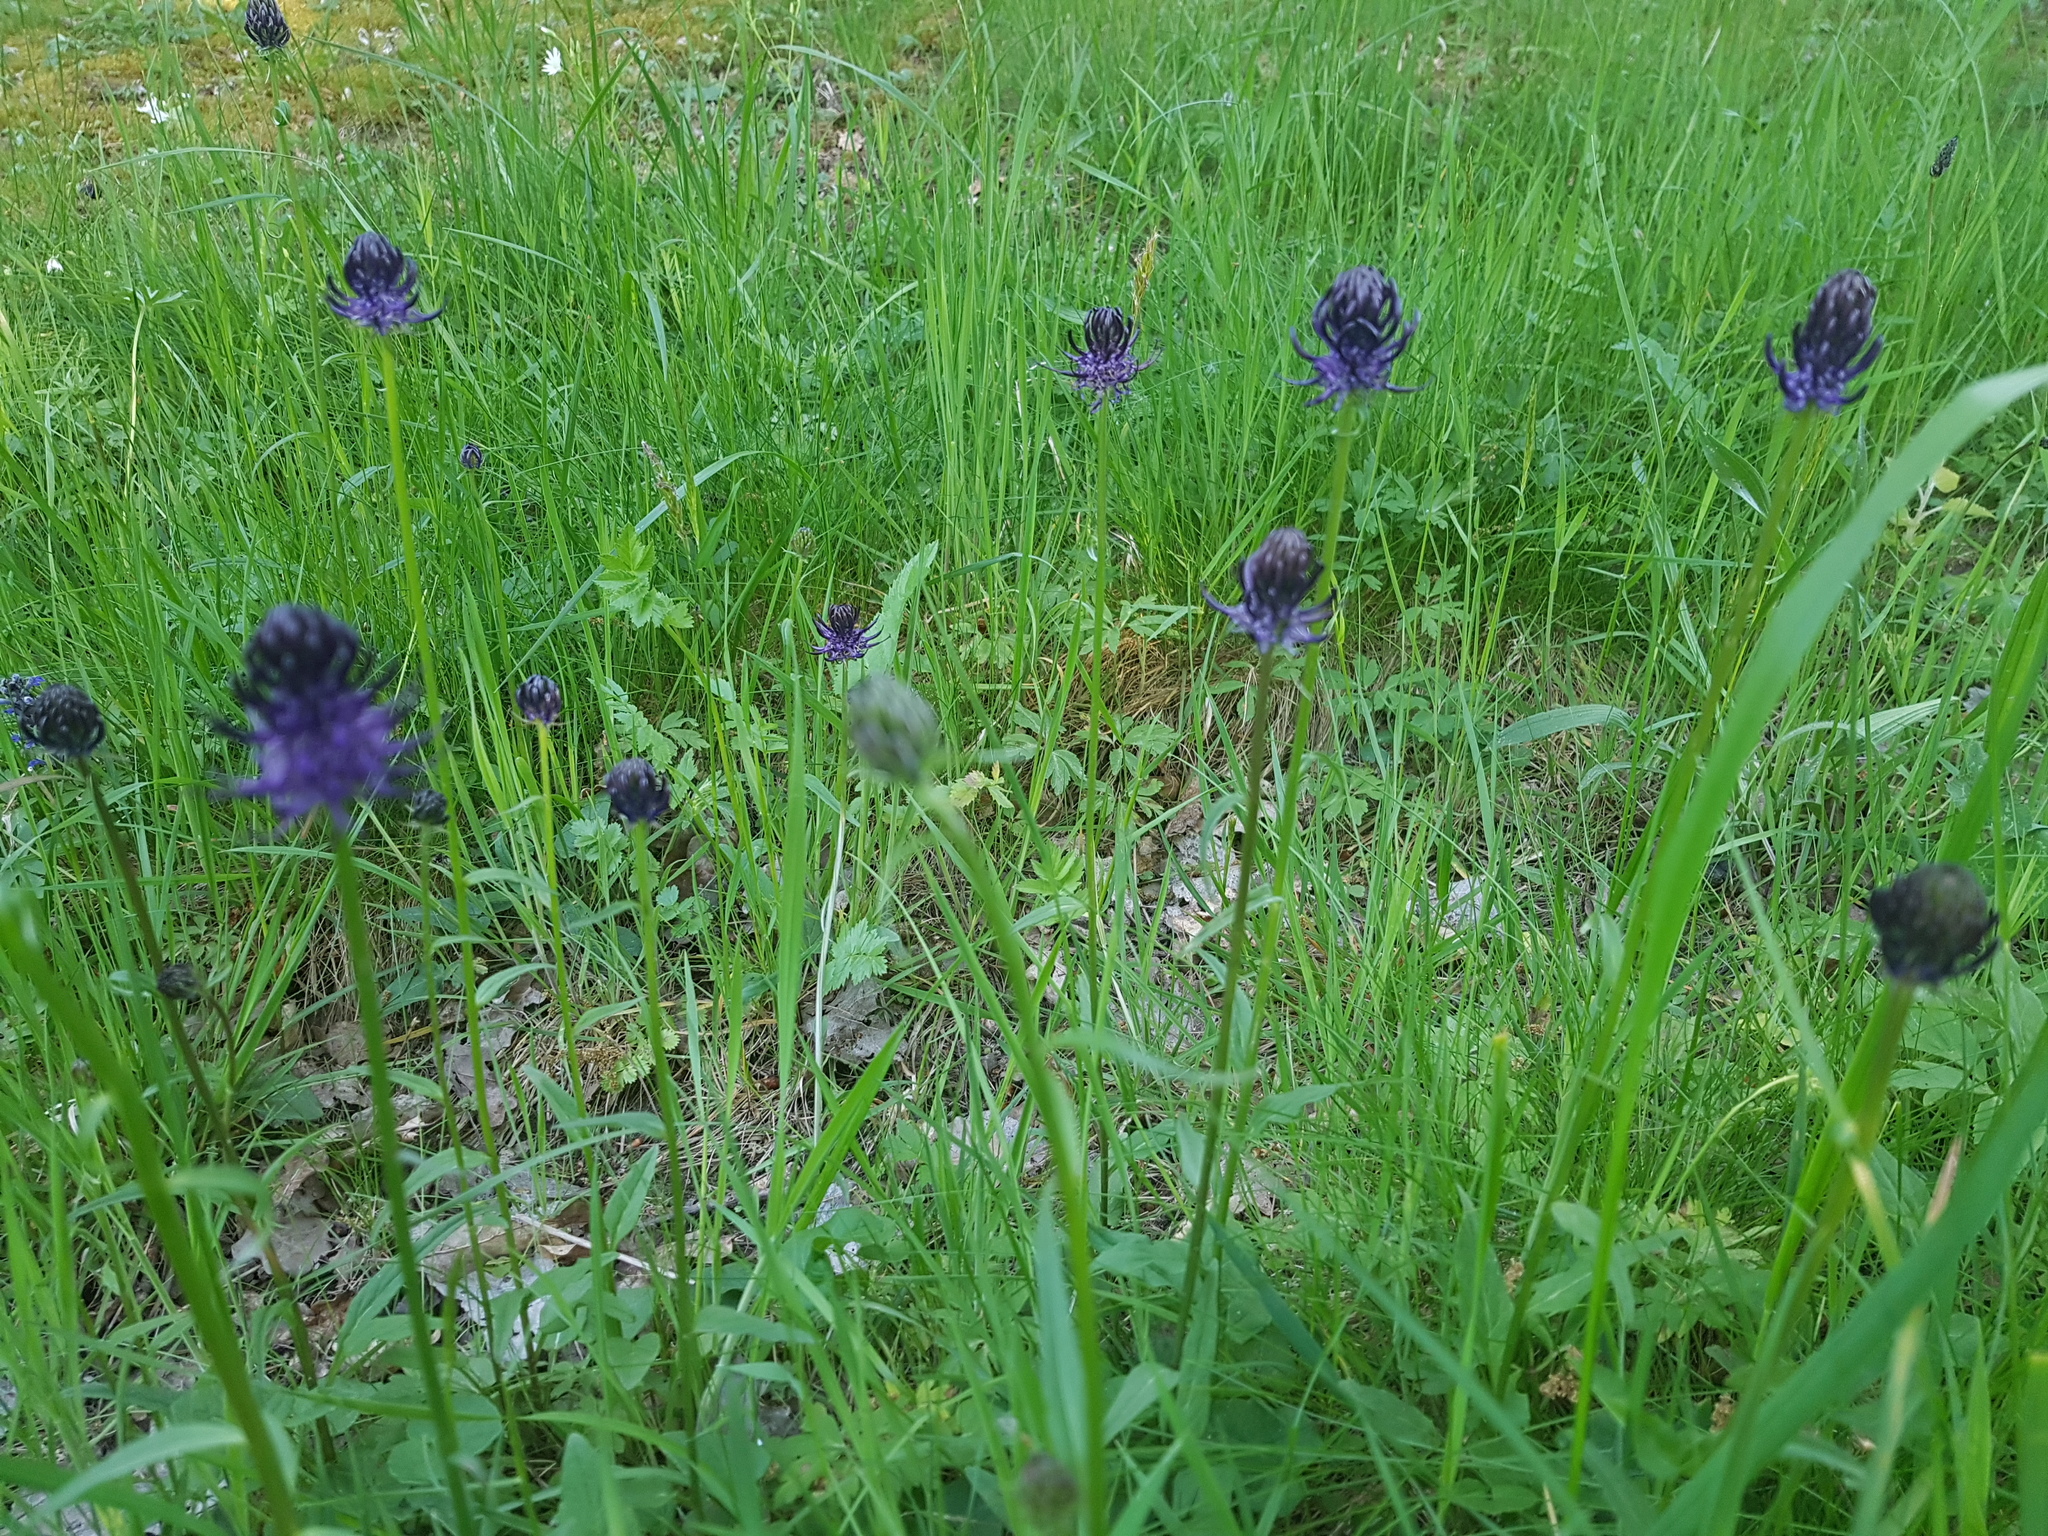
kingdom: Plantae
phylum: Tracheophyta
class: Magnoliopsida
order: Asterales
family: Campanulaceae
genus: Phyteuma
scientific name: Phyteuma nigrum
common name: Black rampion
